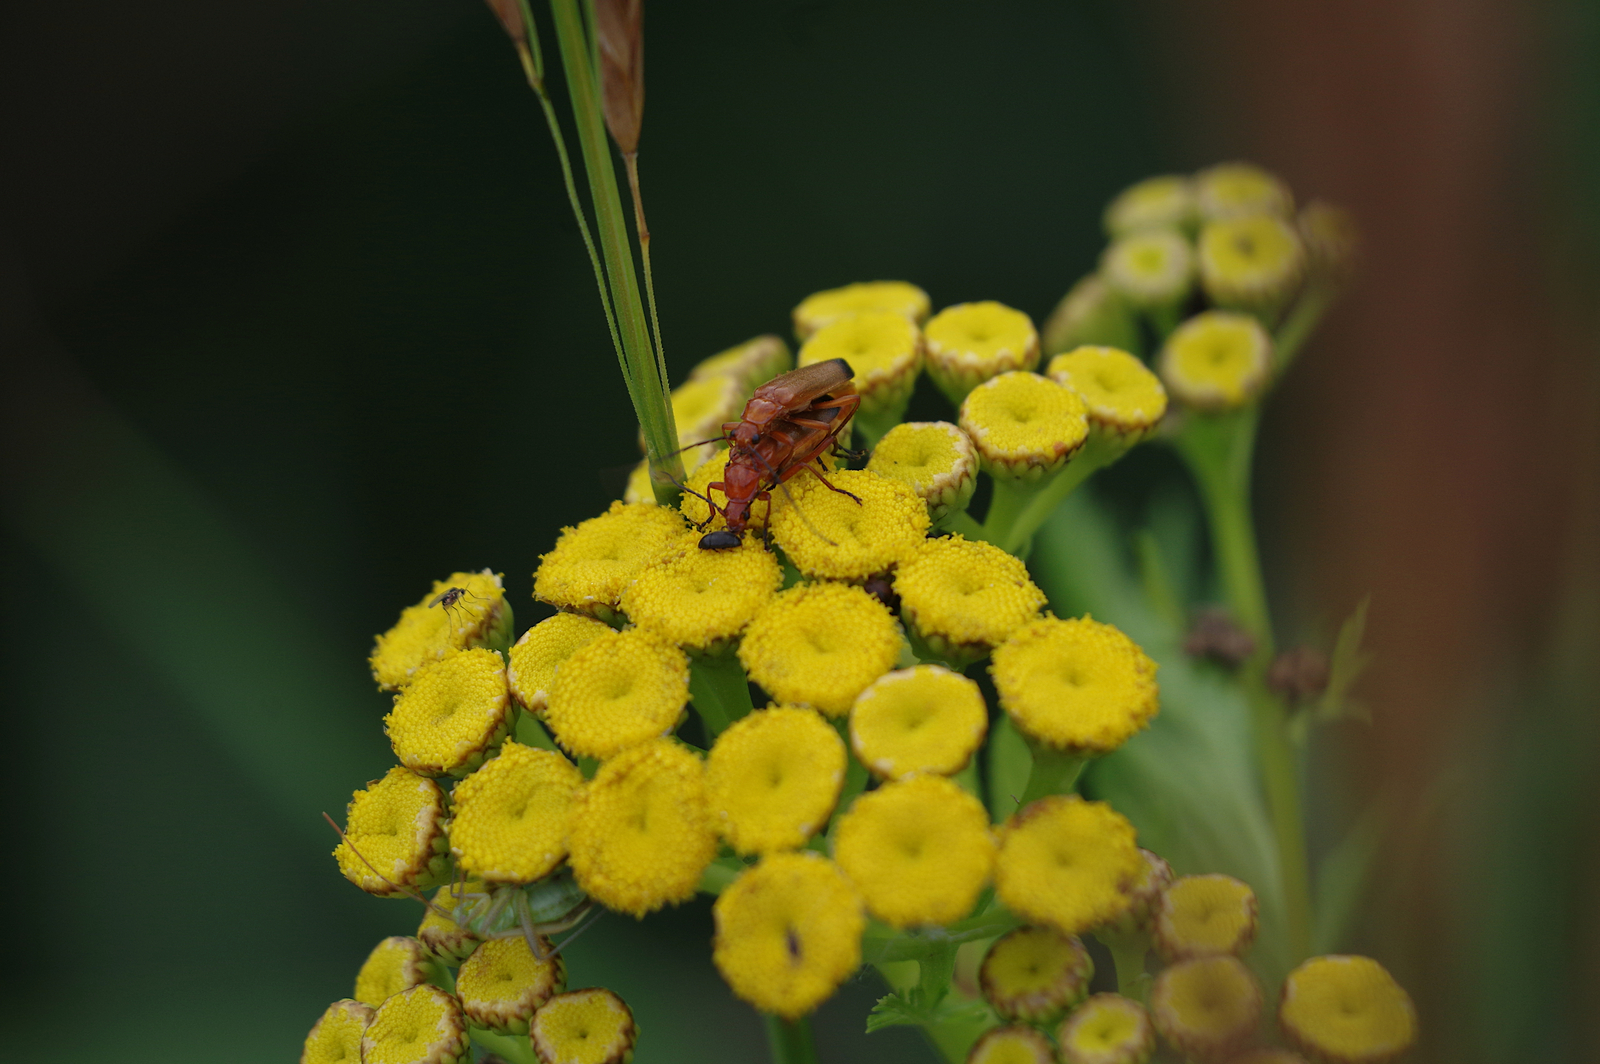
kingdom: Animalia
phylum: Arthropoda
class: Insecta
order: Coleoptera
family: Cantharidae
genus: Rhagonycha
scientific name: Rhagonycha fulva
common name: Common red soldier beetle
